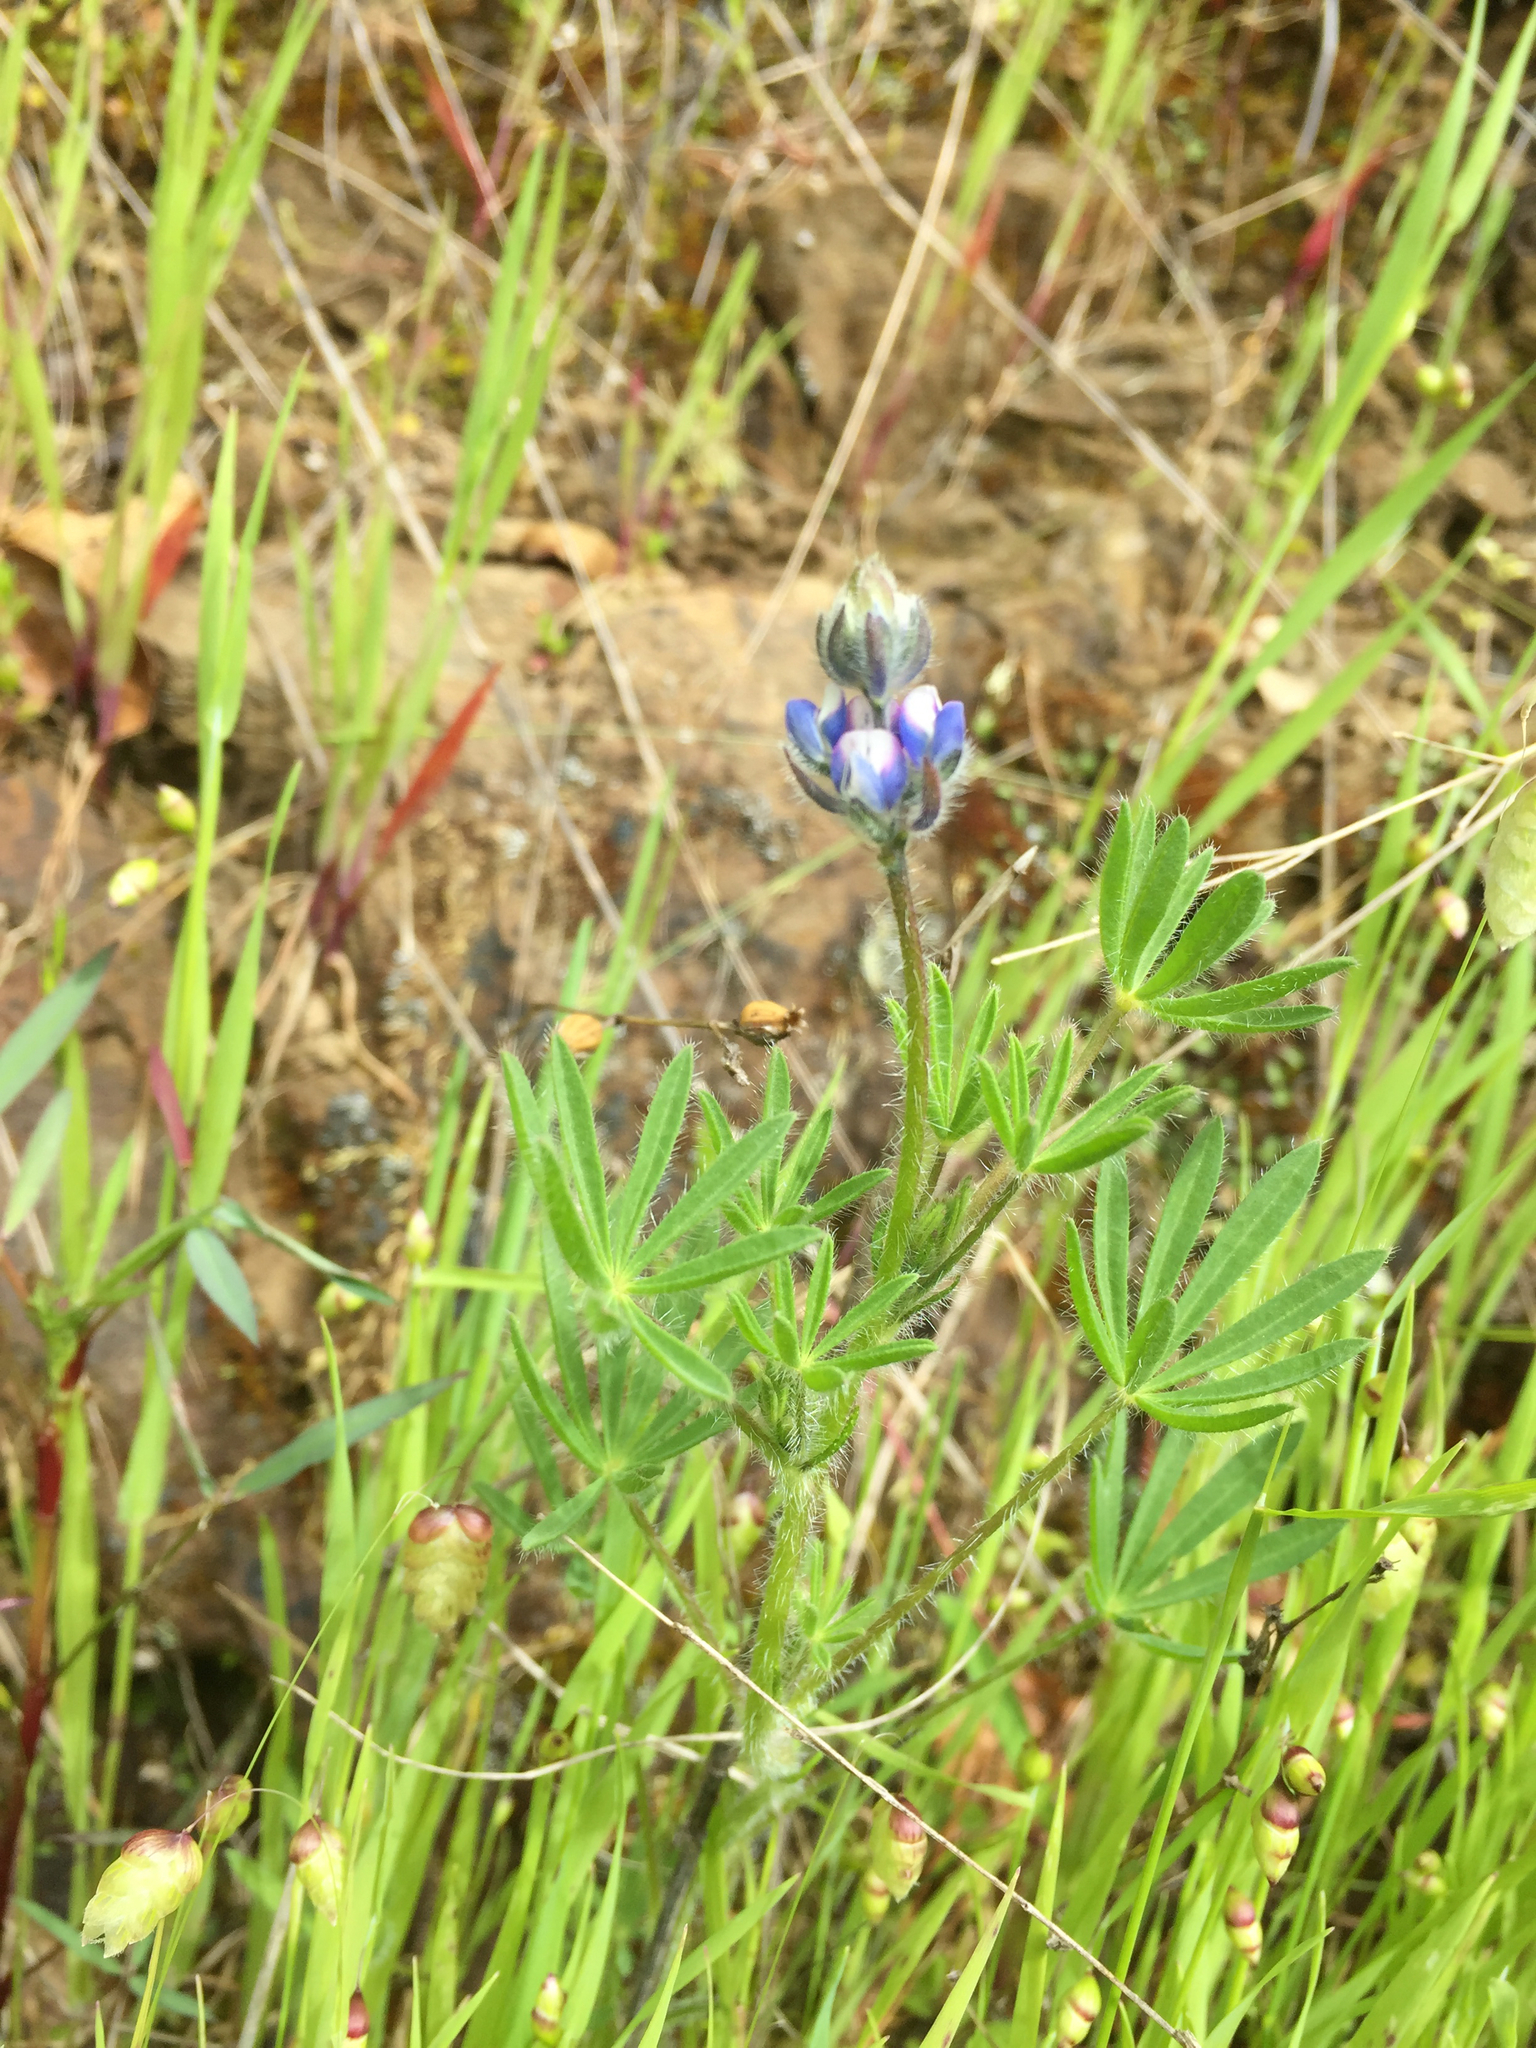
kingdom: Plantae
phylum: Tracheophyta
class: Magnoliopsida
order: Fabales
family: Fabaceae
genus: Lupinus
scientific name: Lupinus bicolor
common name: Miniature lupine
